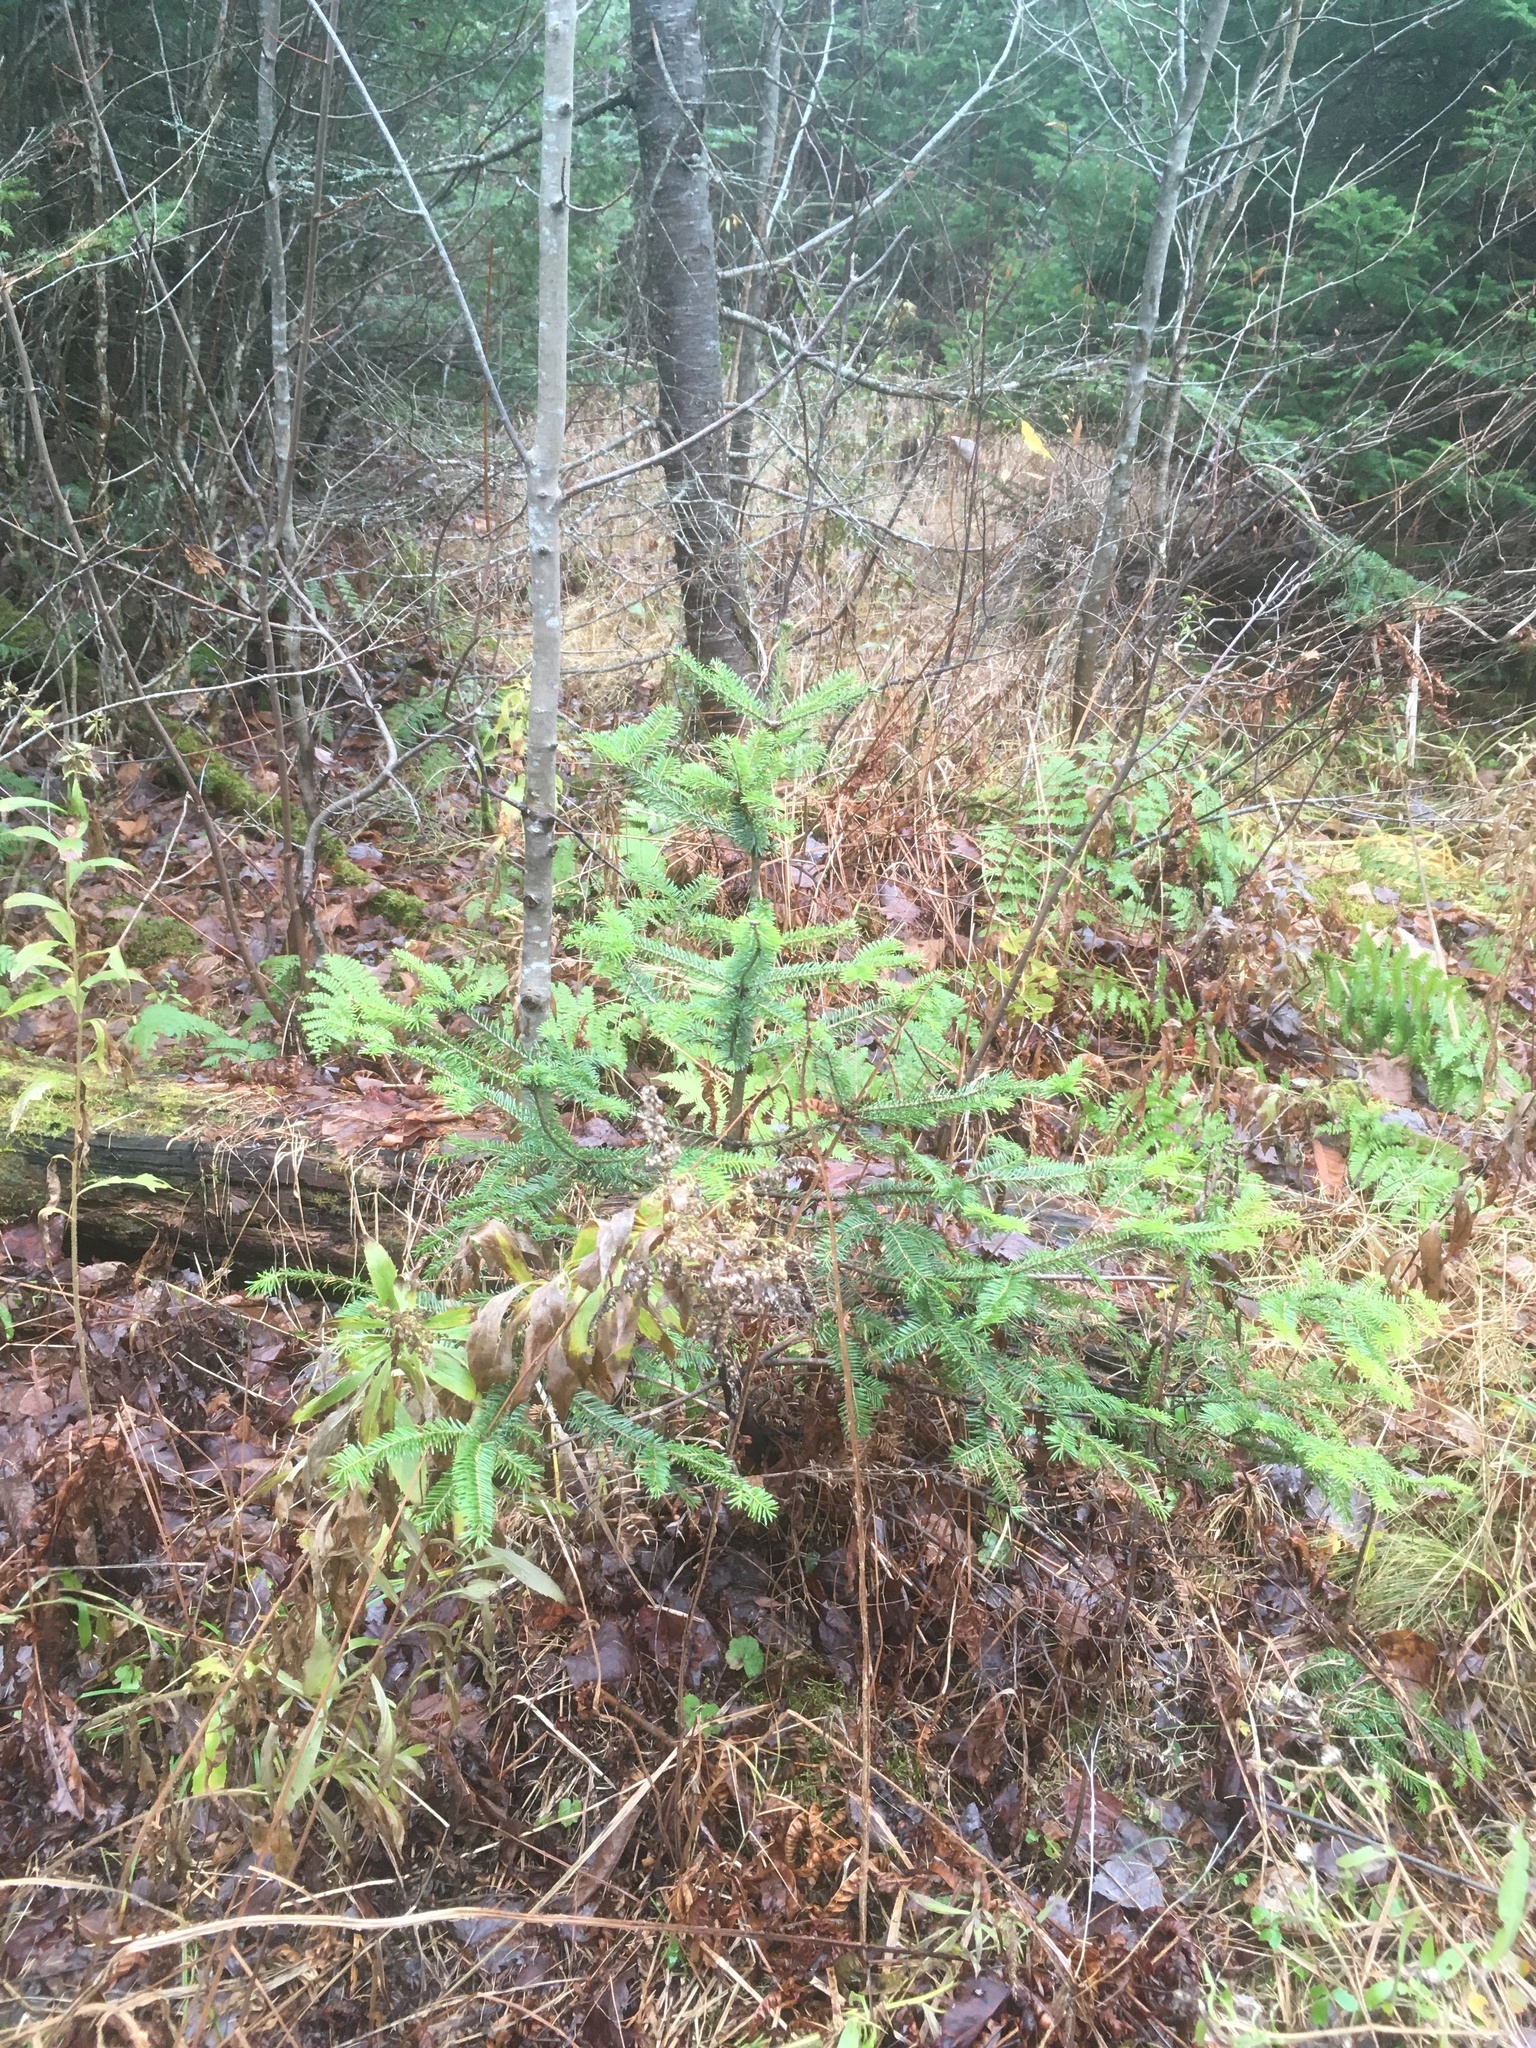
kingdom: Plantae
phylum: Tracheophyta
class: Pinopsida
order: Pinales
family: Pinaceae
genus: Abies
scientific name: Abies balsamea
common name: Balsam fir
